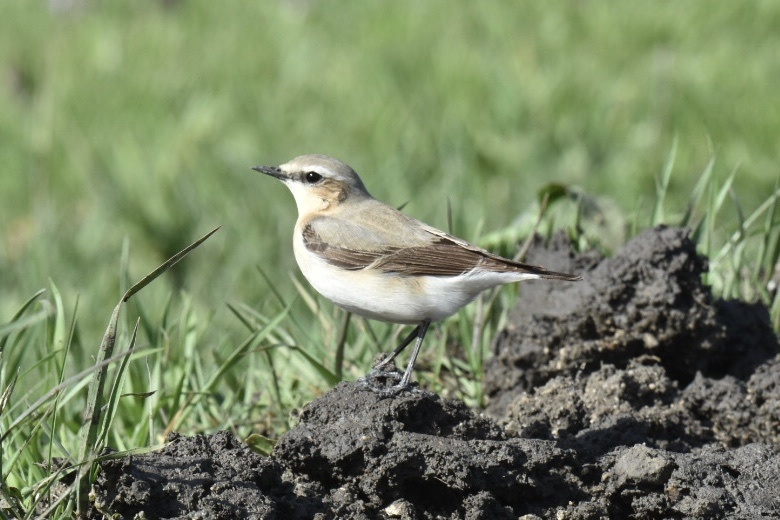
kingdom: Animalia
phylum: Chordata
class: Aves
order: Passeriformes
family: Muscicapidae
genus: Oenanthe
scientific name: Oenanthe oenanthe
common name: Northern wheatear
